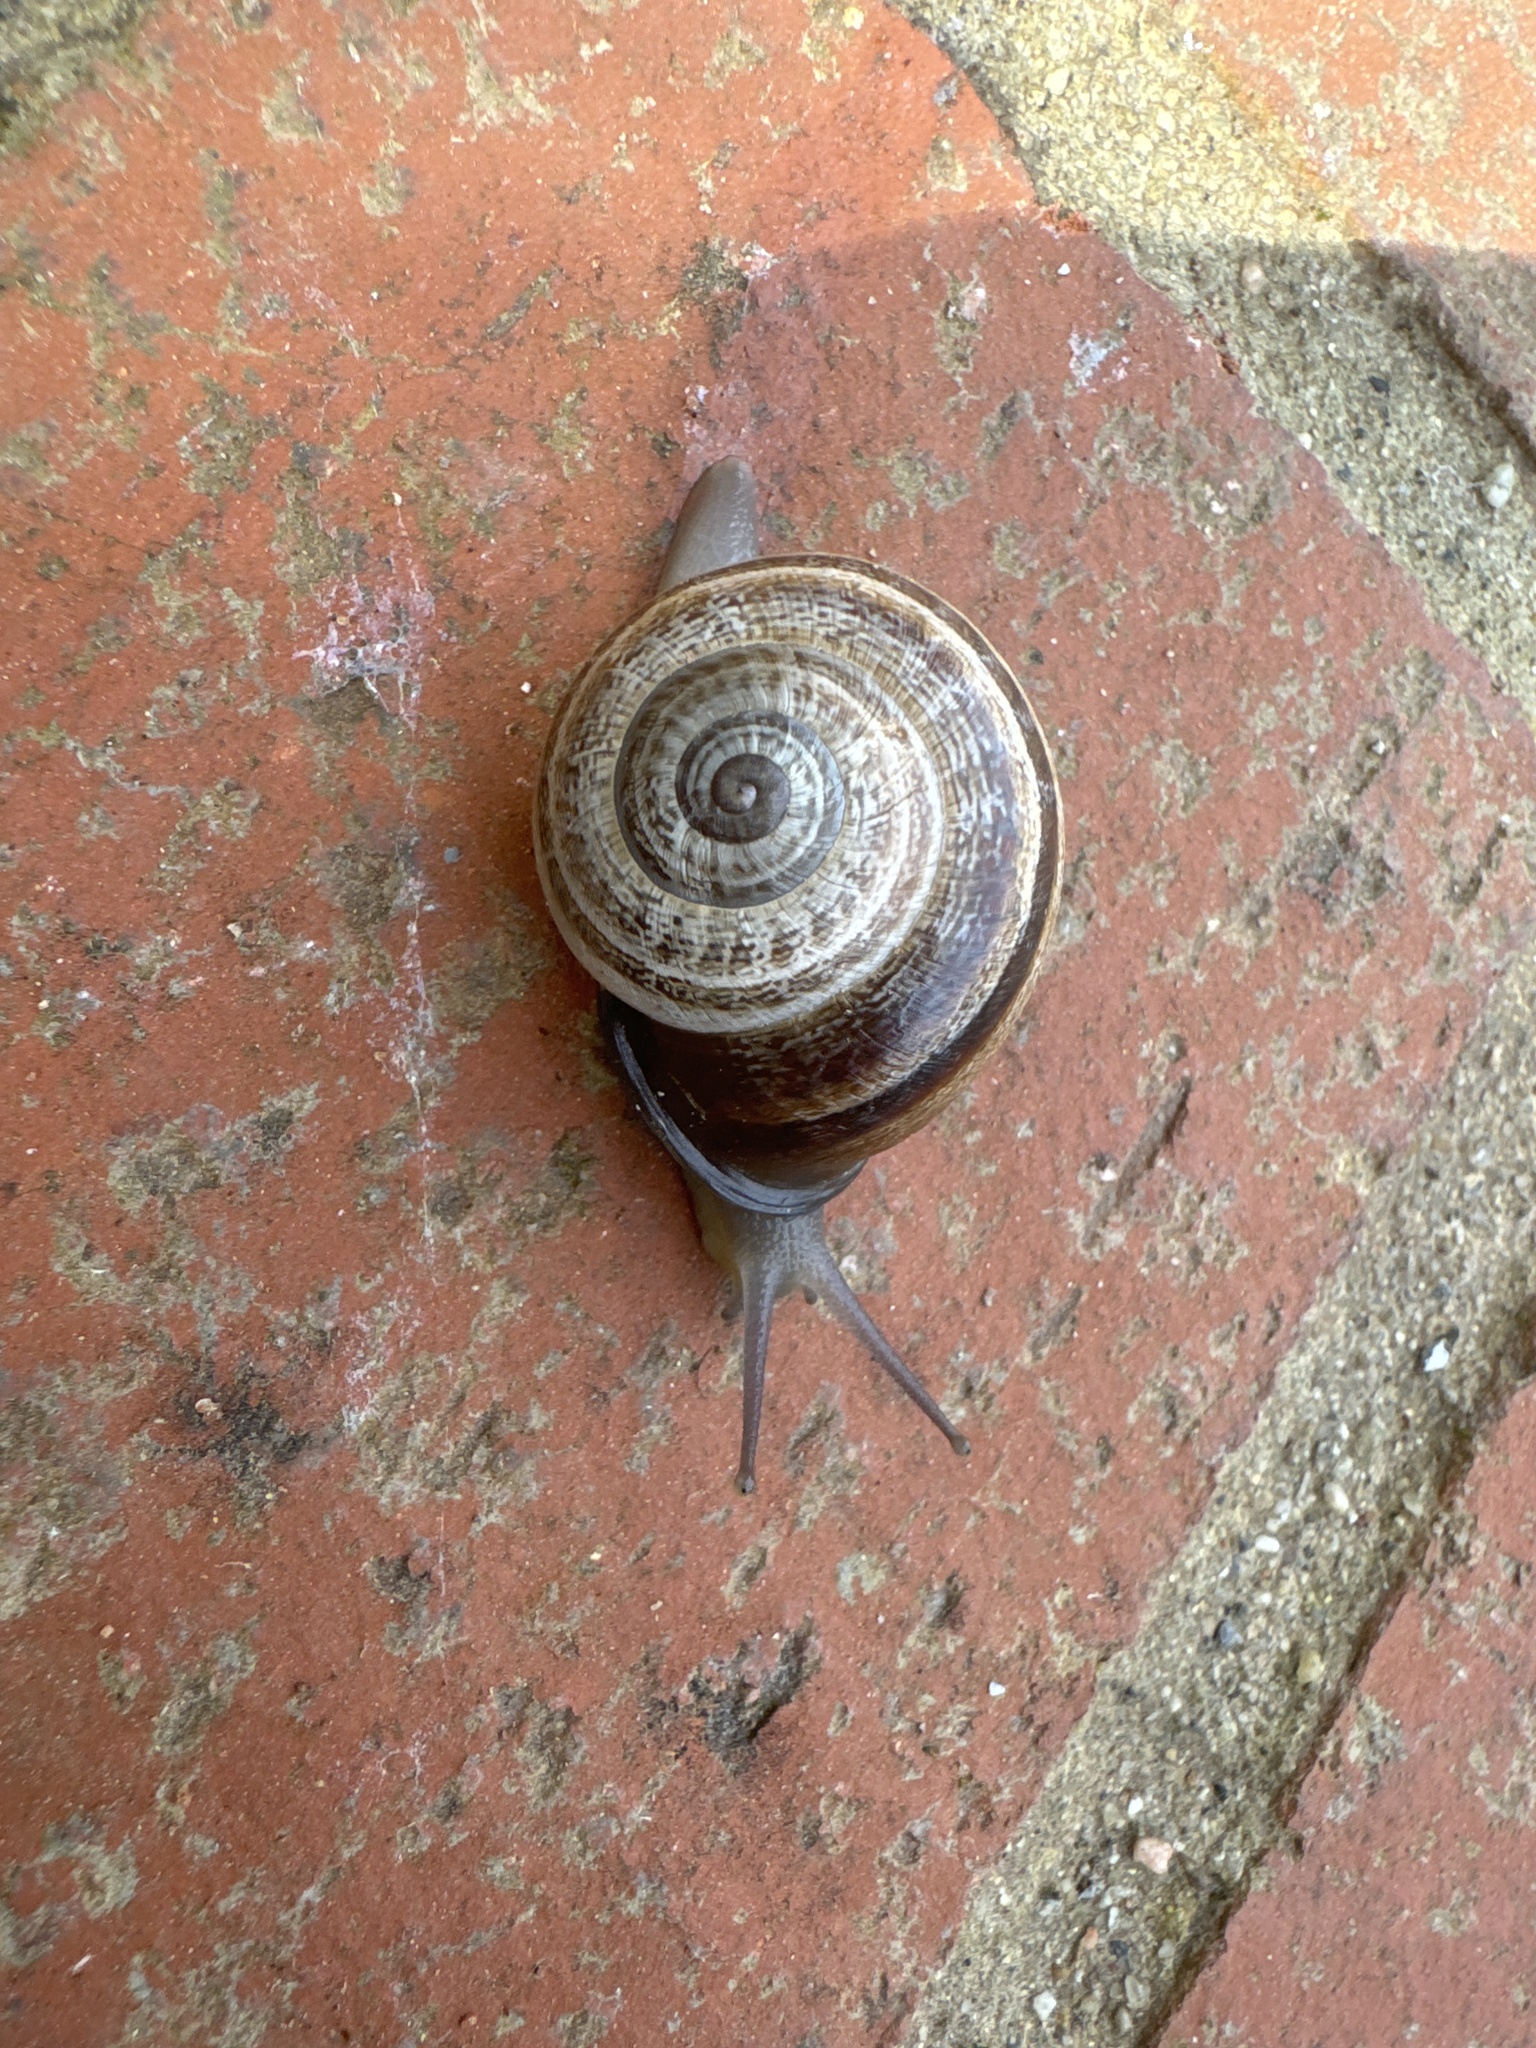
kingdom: Animalia
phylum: Mollusca
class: Gastropoda
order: Stylommatophora
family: Helicidae
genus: Otala
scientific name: Otala lactea
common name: Milk snail
